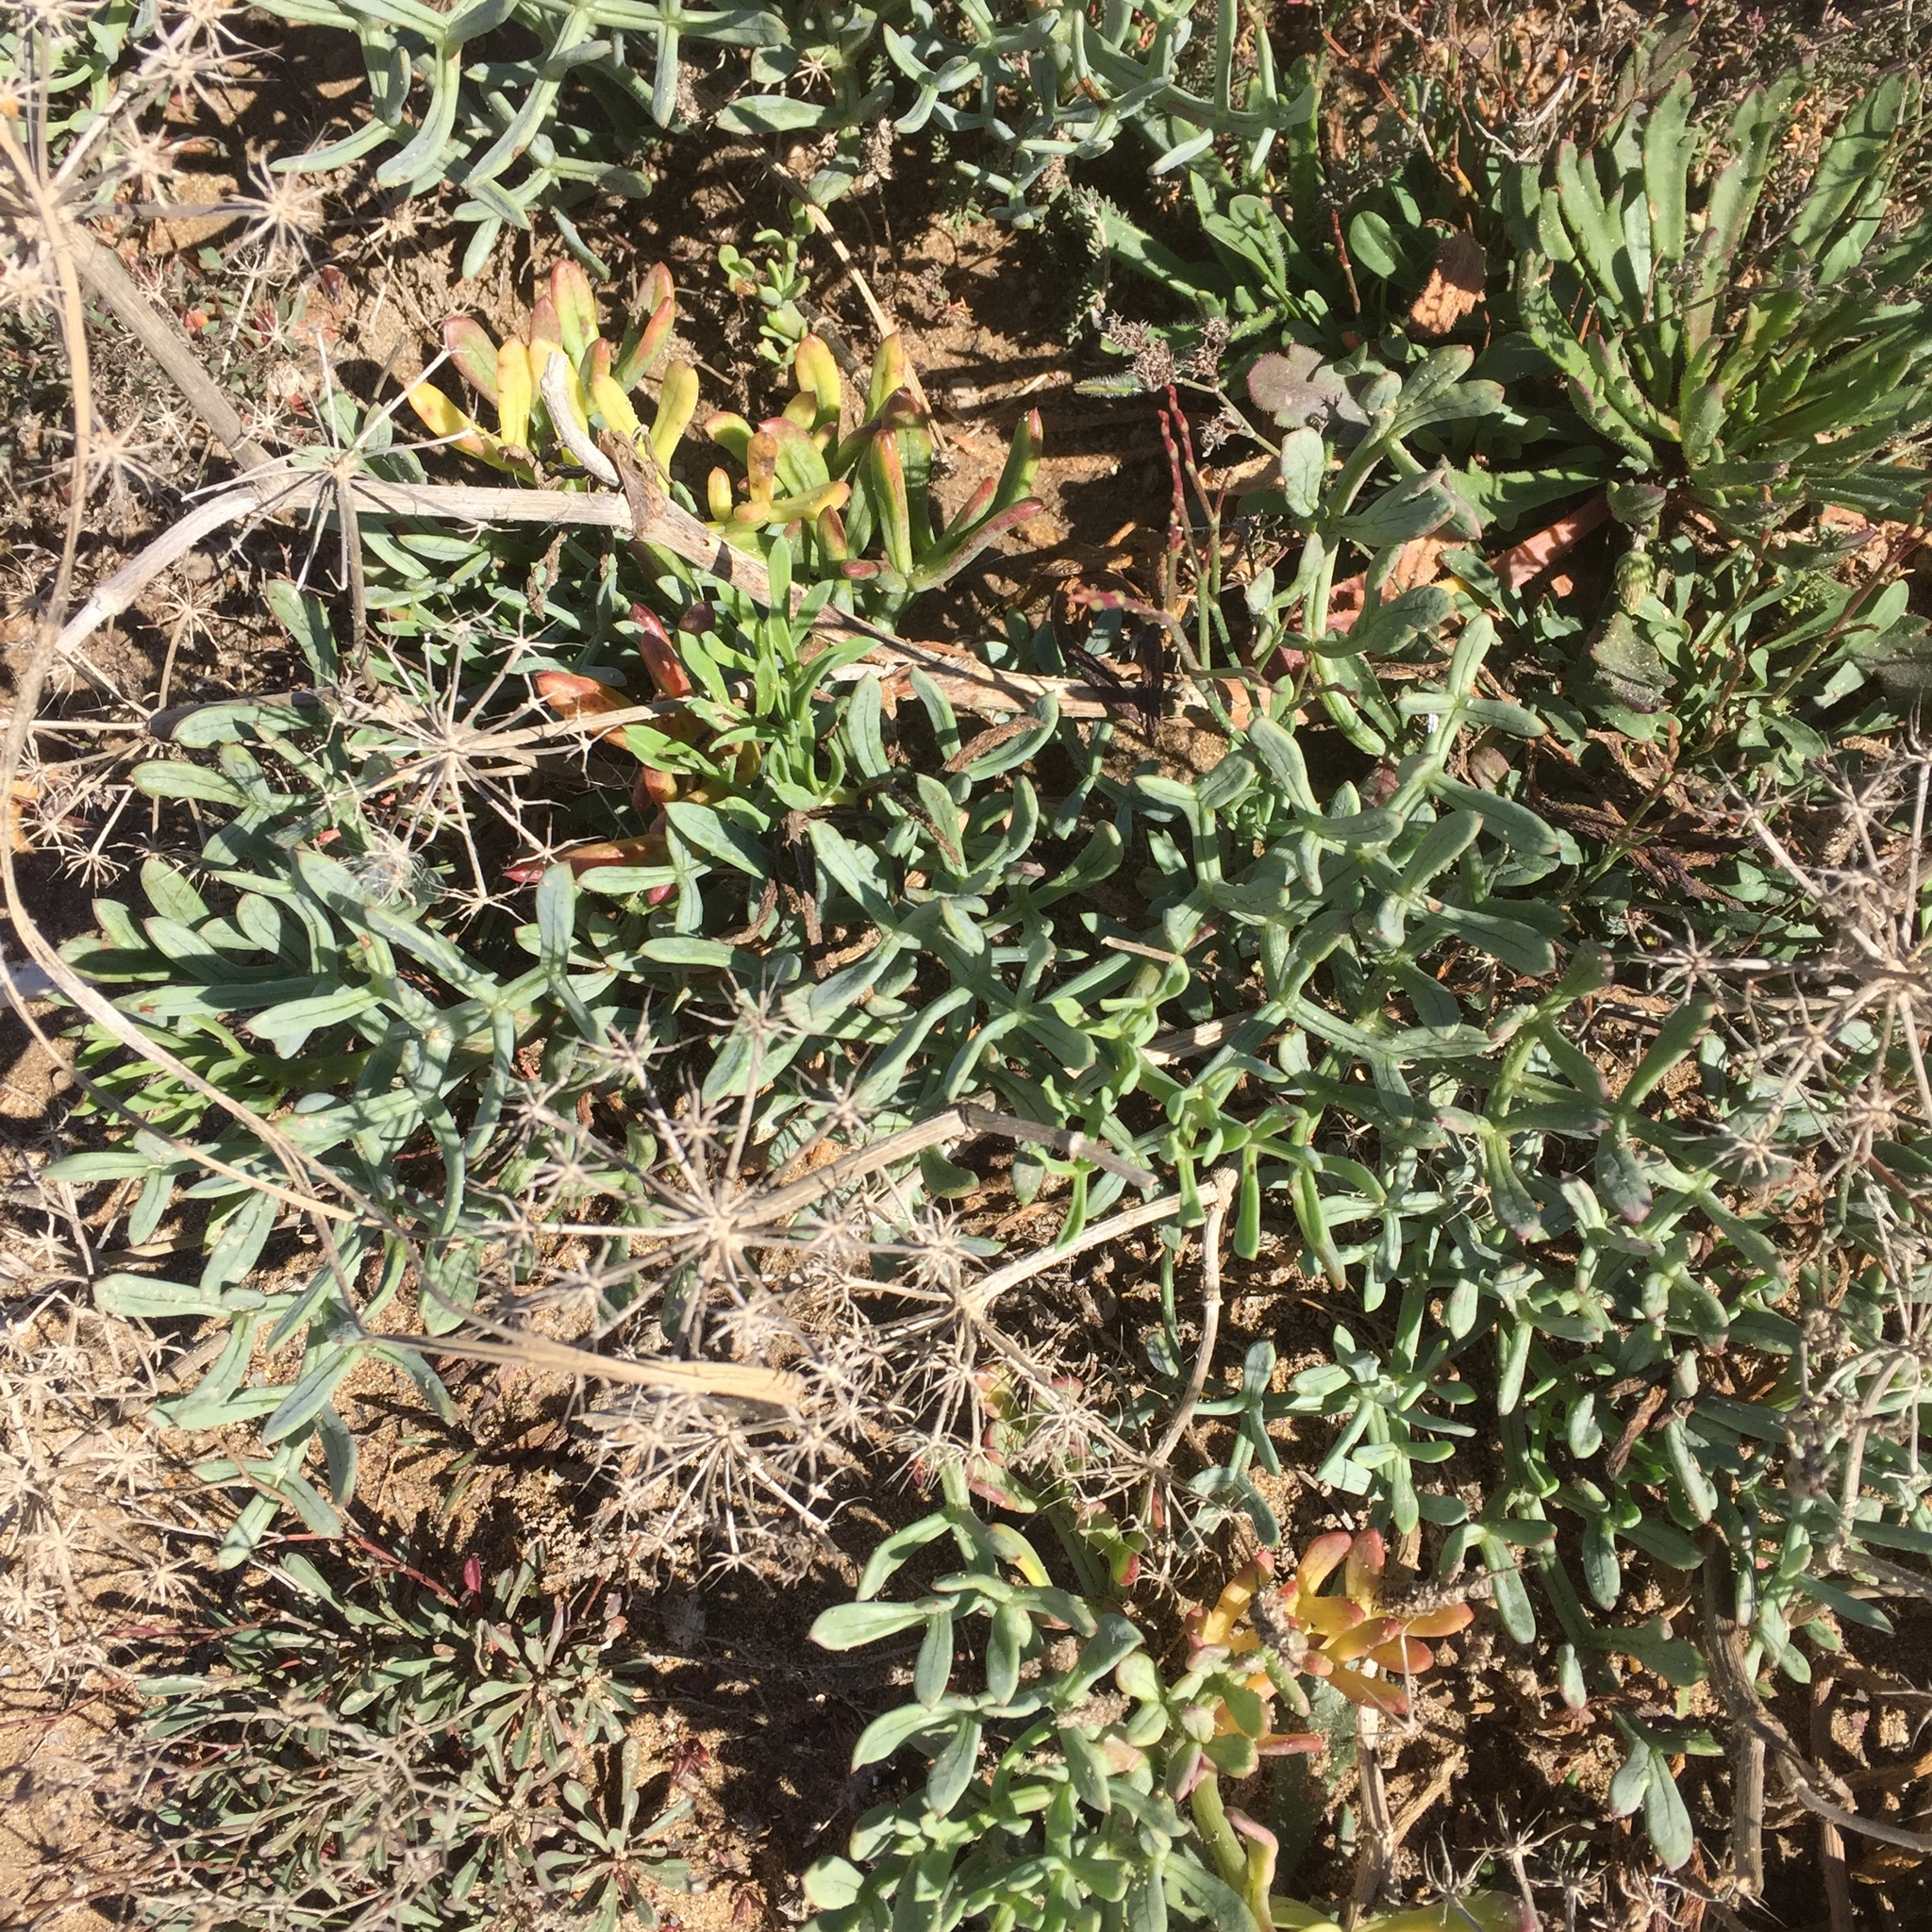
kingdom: Plantae
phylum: Tracheophyta
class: Magnoliopsida
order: Apiales
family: Apiaceae
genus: Crithmum
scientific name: Crithmum maritimum
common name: Rock samphire
